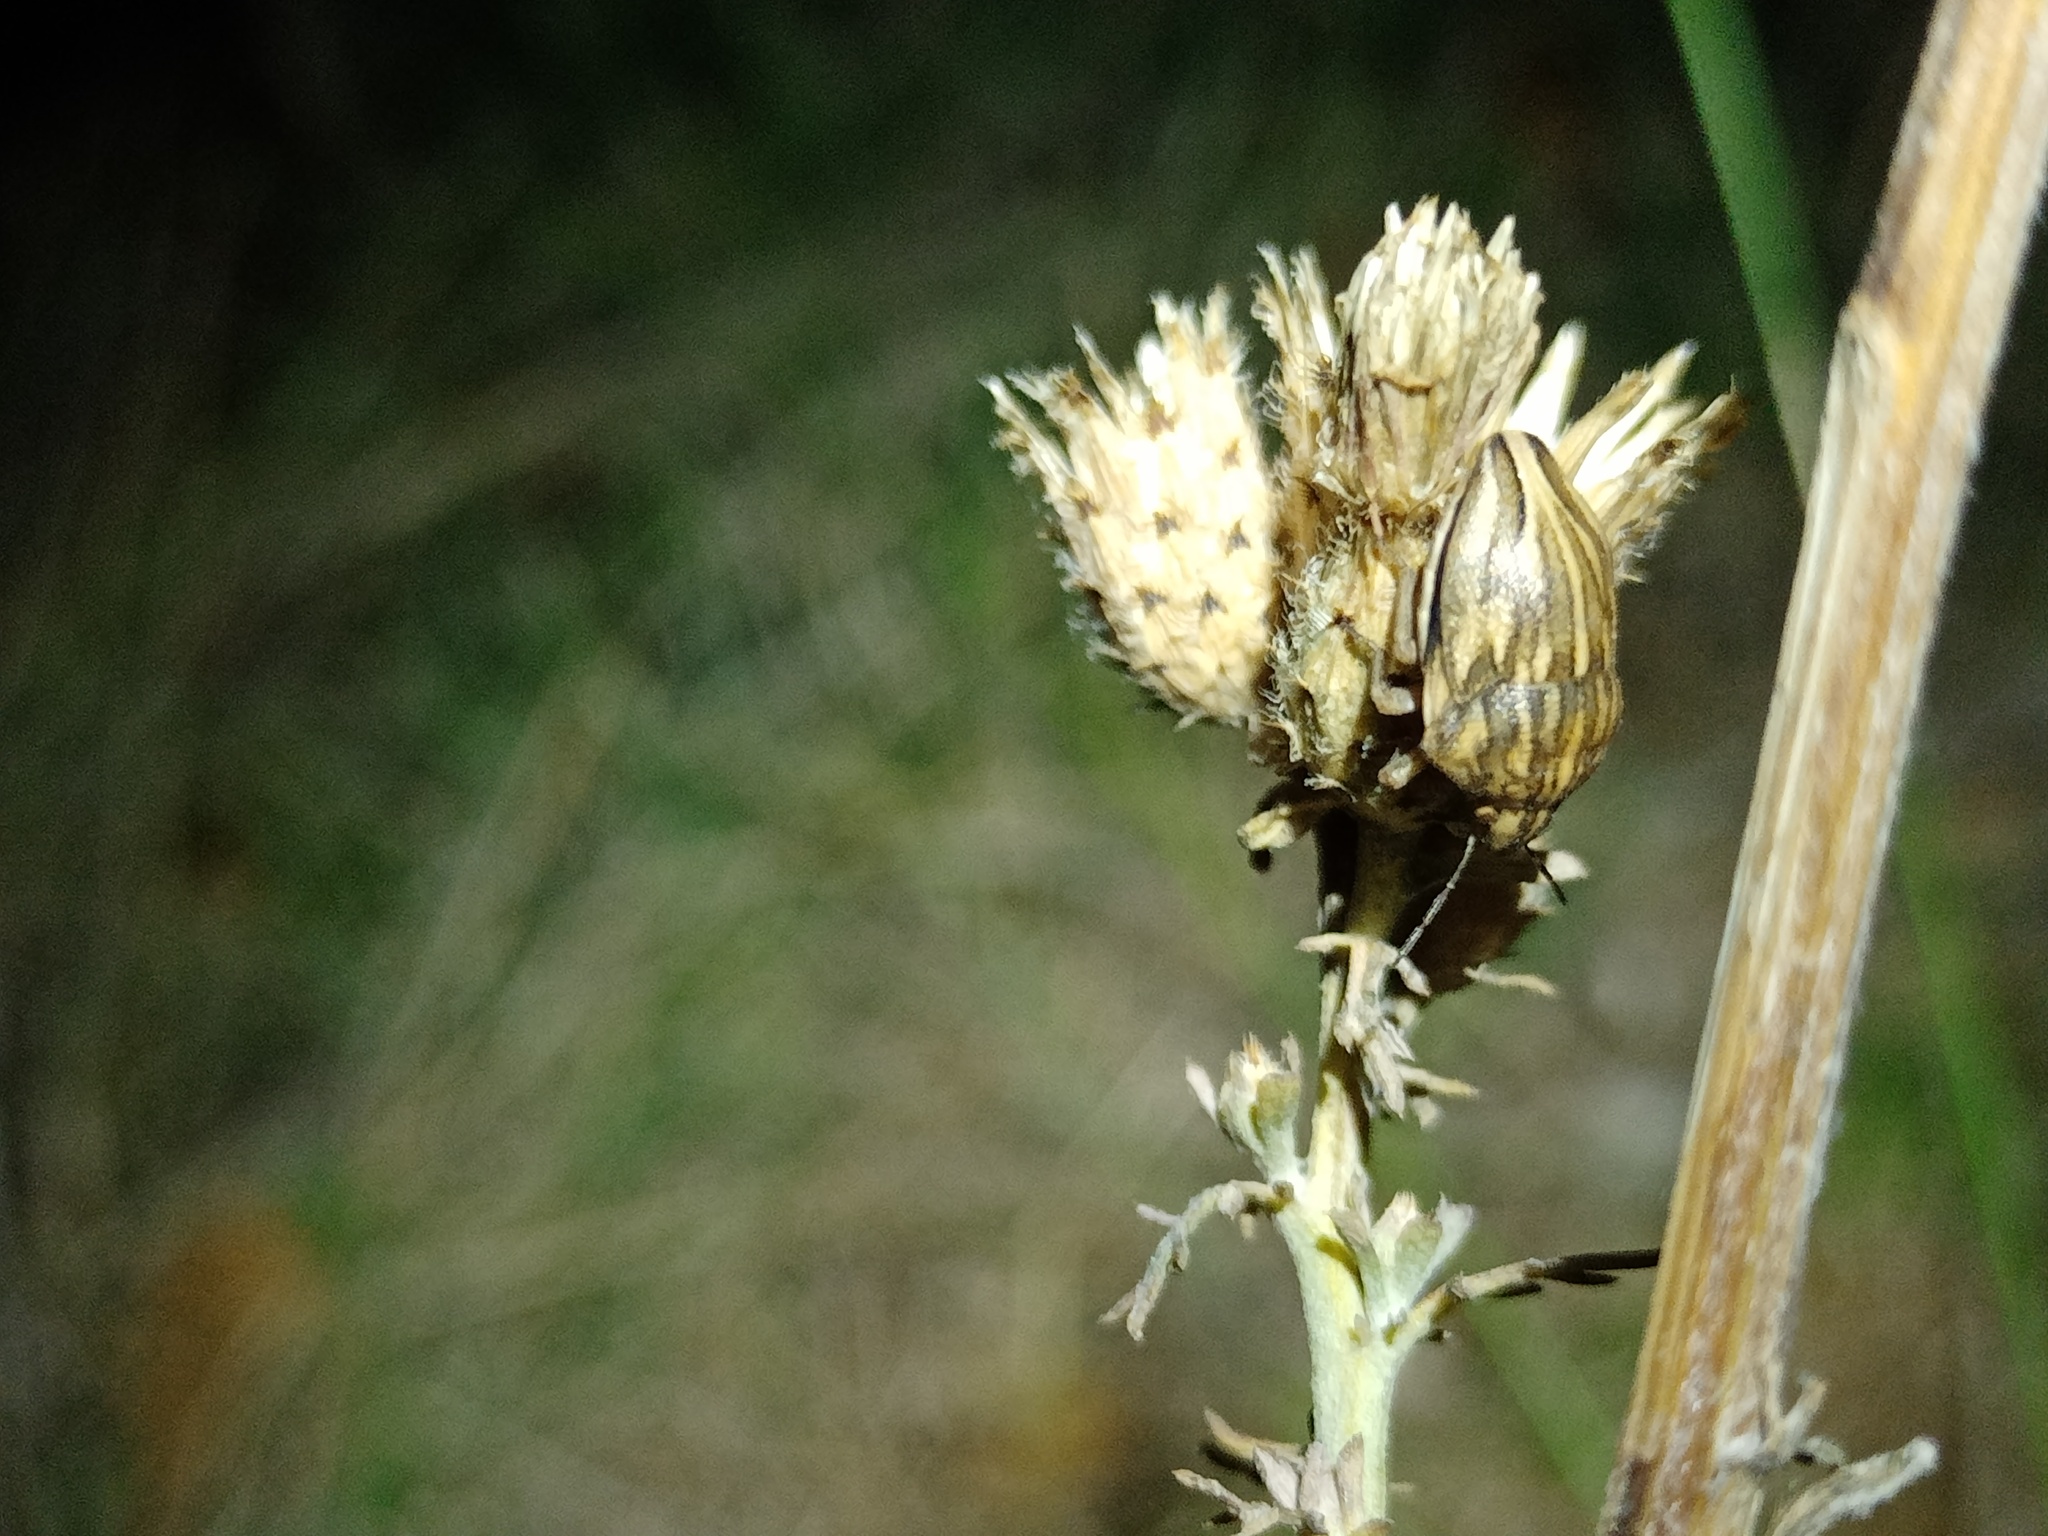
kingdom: Animalia
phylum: Arthropoda
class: Insecta
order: Hemiptera
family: Scutelleridae
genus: Odontotarsus
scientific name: Odontotarsus purpureolineatus
